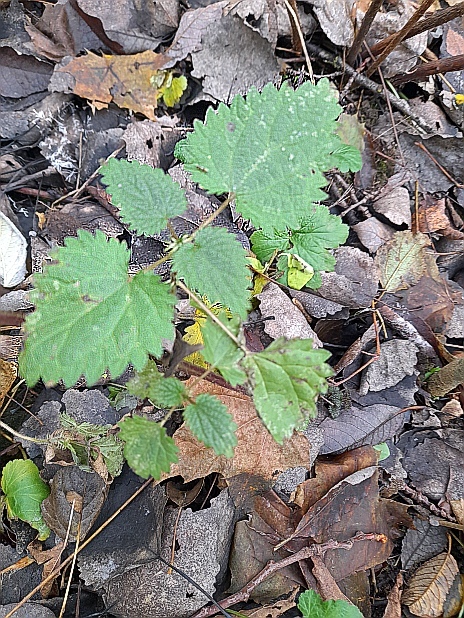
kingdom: Plantae
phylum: Tracheophyta
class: Magnoliopsida
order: Rosales
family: Urticaceae
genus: Urtica
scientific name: Urtica dioica
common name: Common nettle
